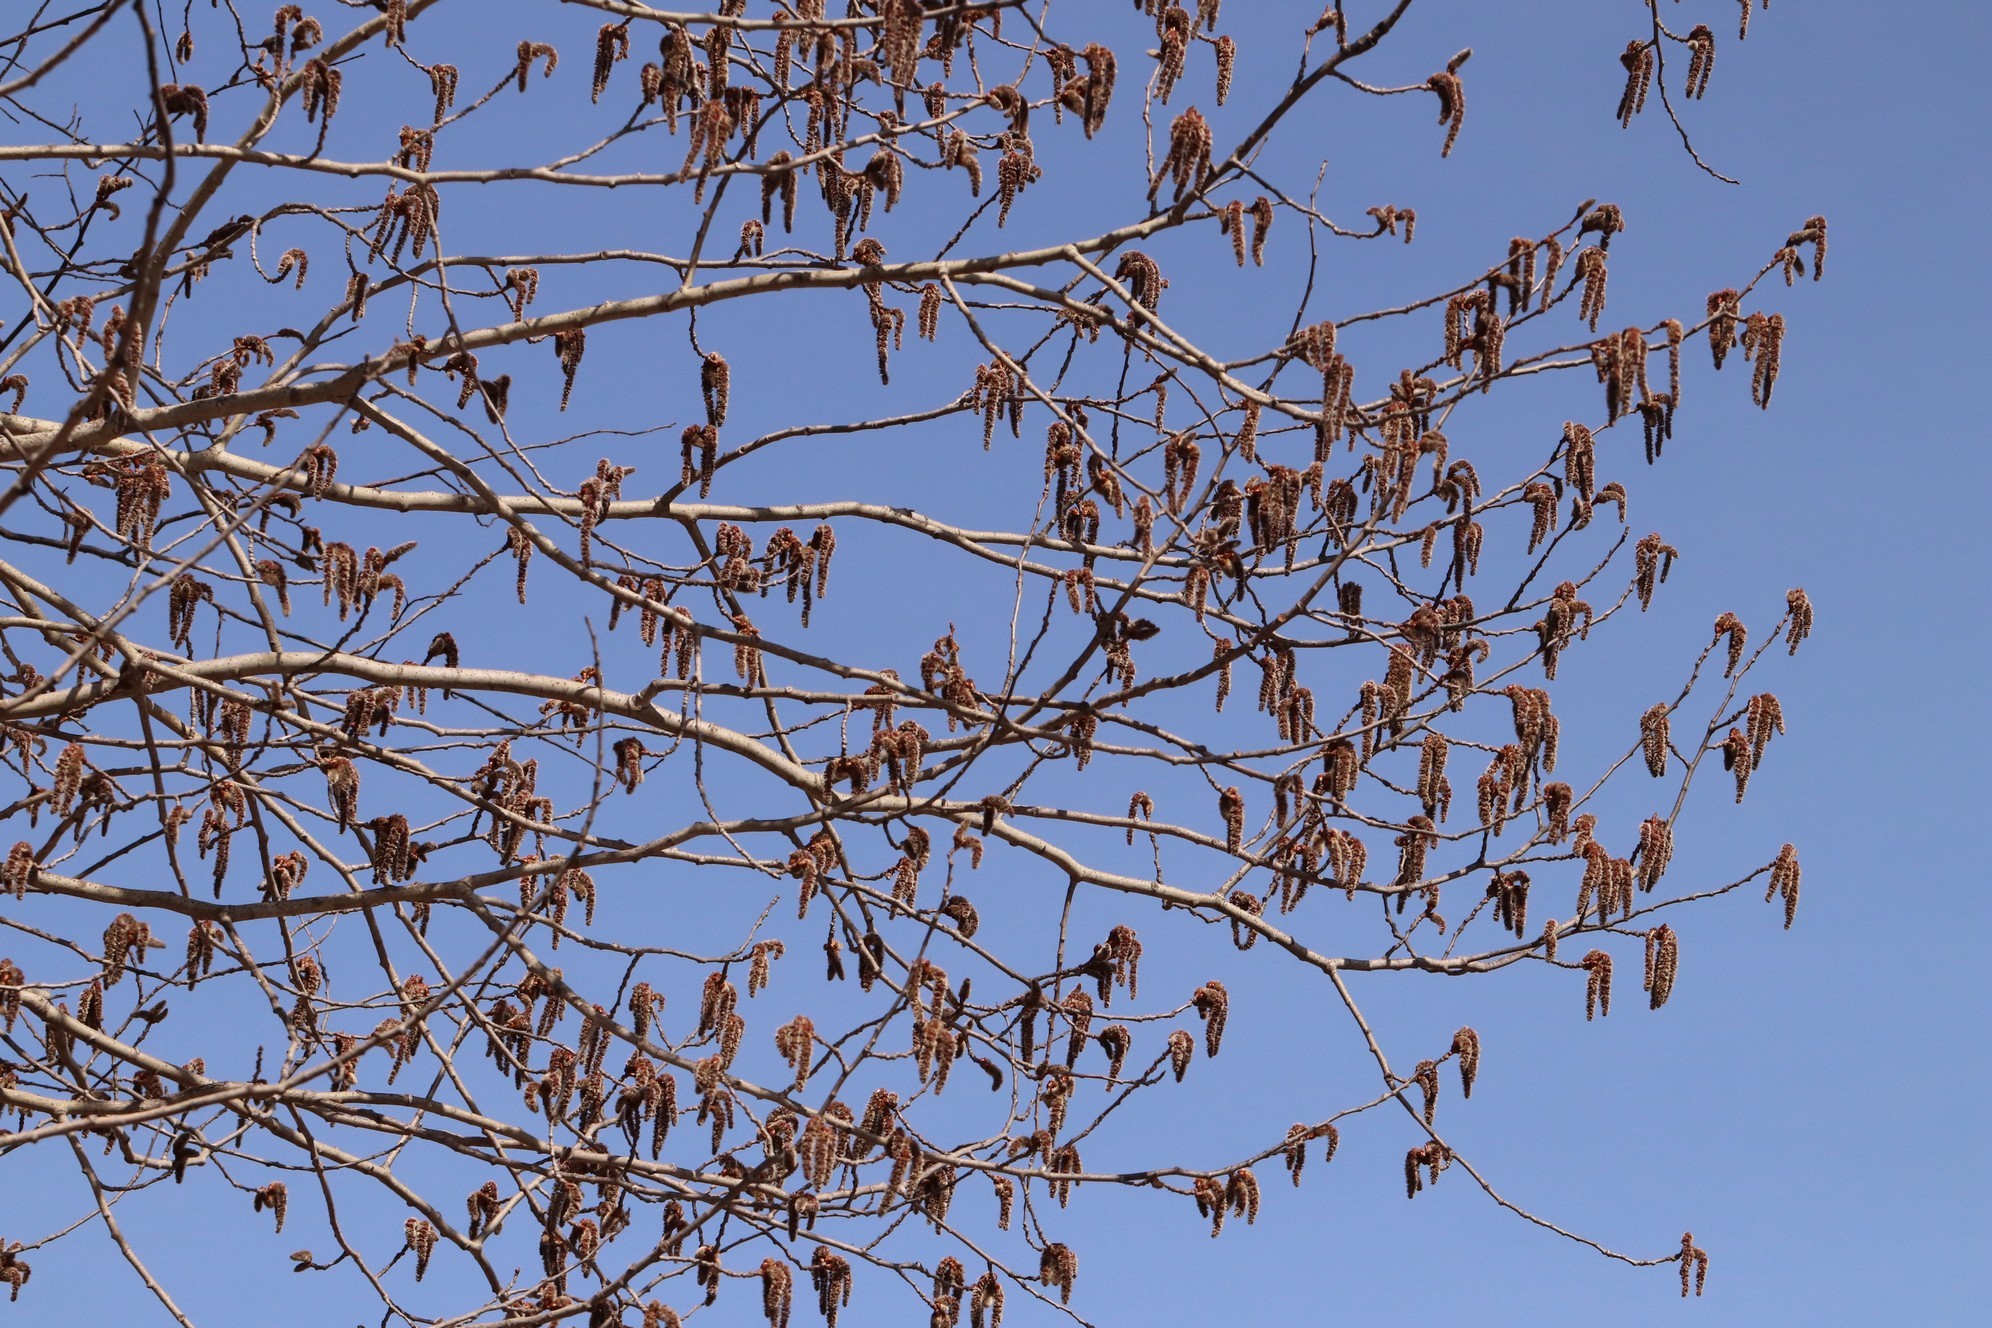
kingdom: Plantae
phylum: Tracheophyta
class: Magnoliopsida
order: Malpighiales
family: Salicaceae
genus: Populus
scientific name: Populus tremula
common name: European aspen
